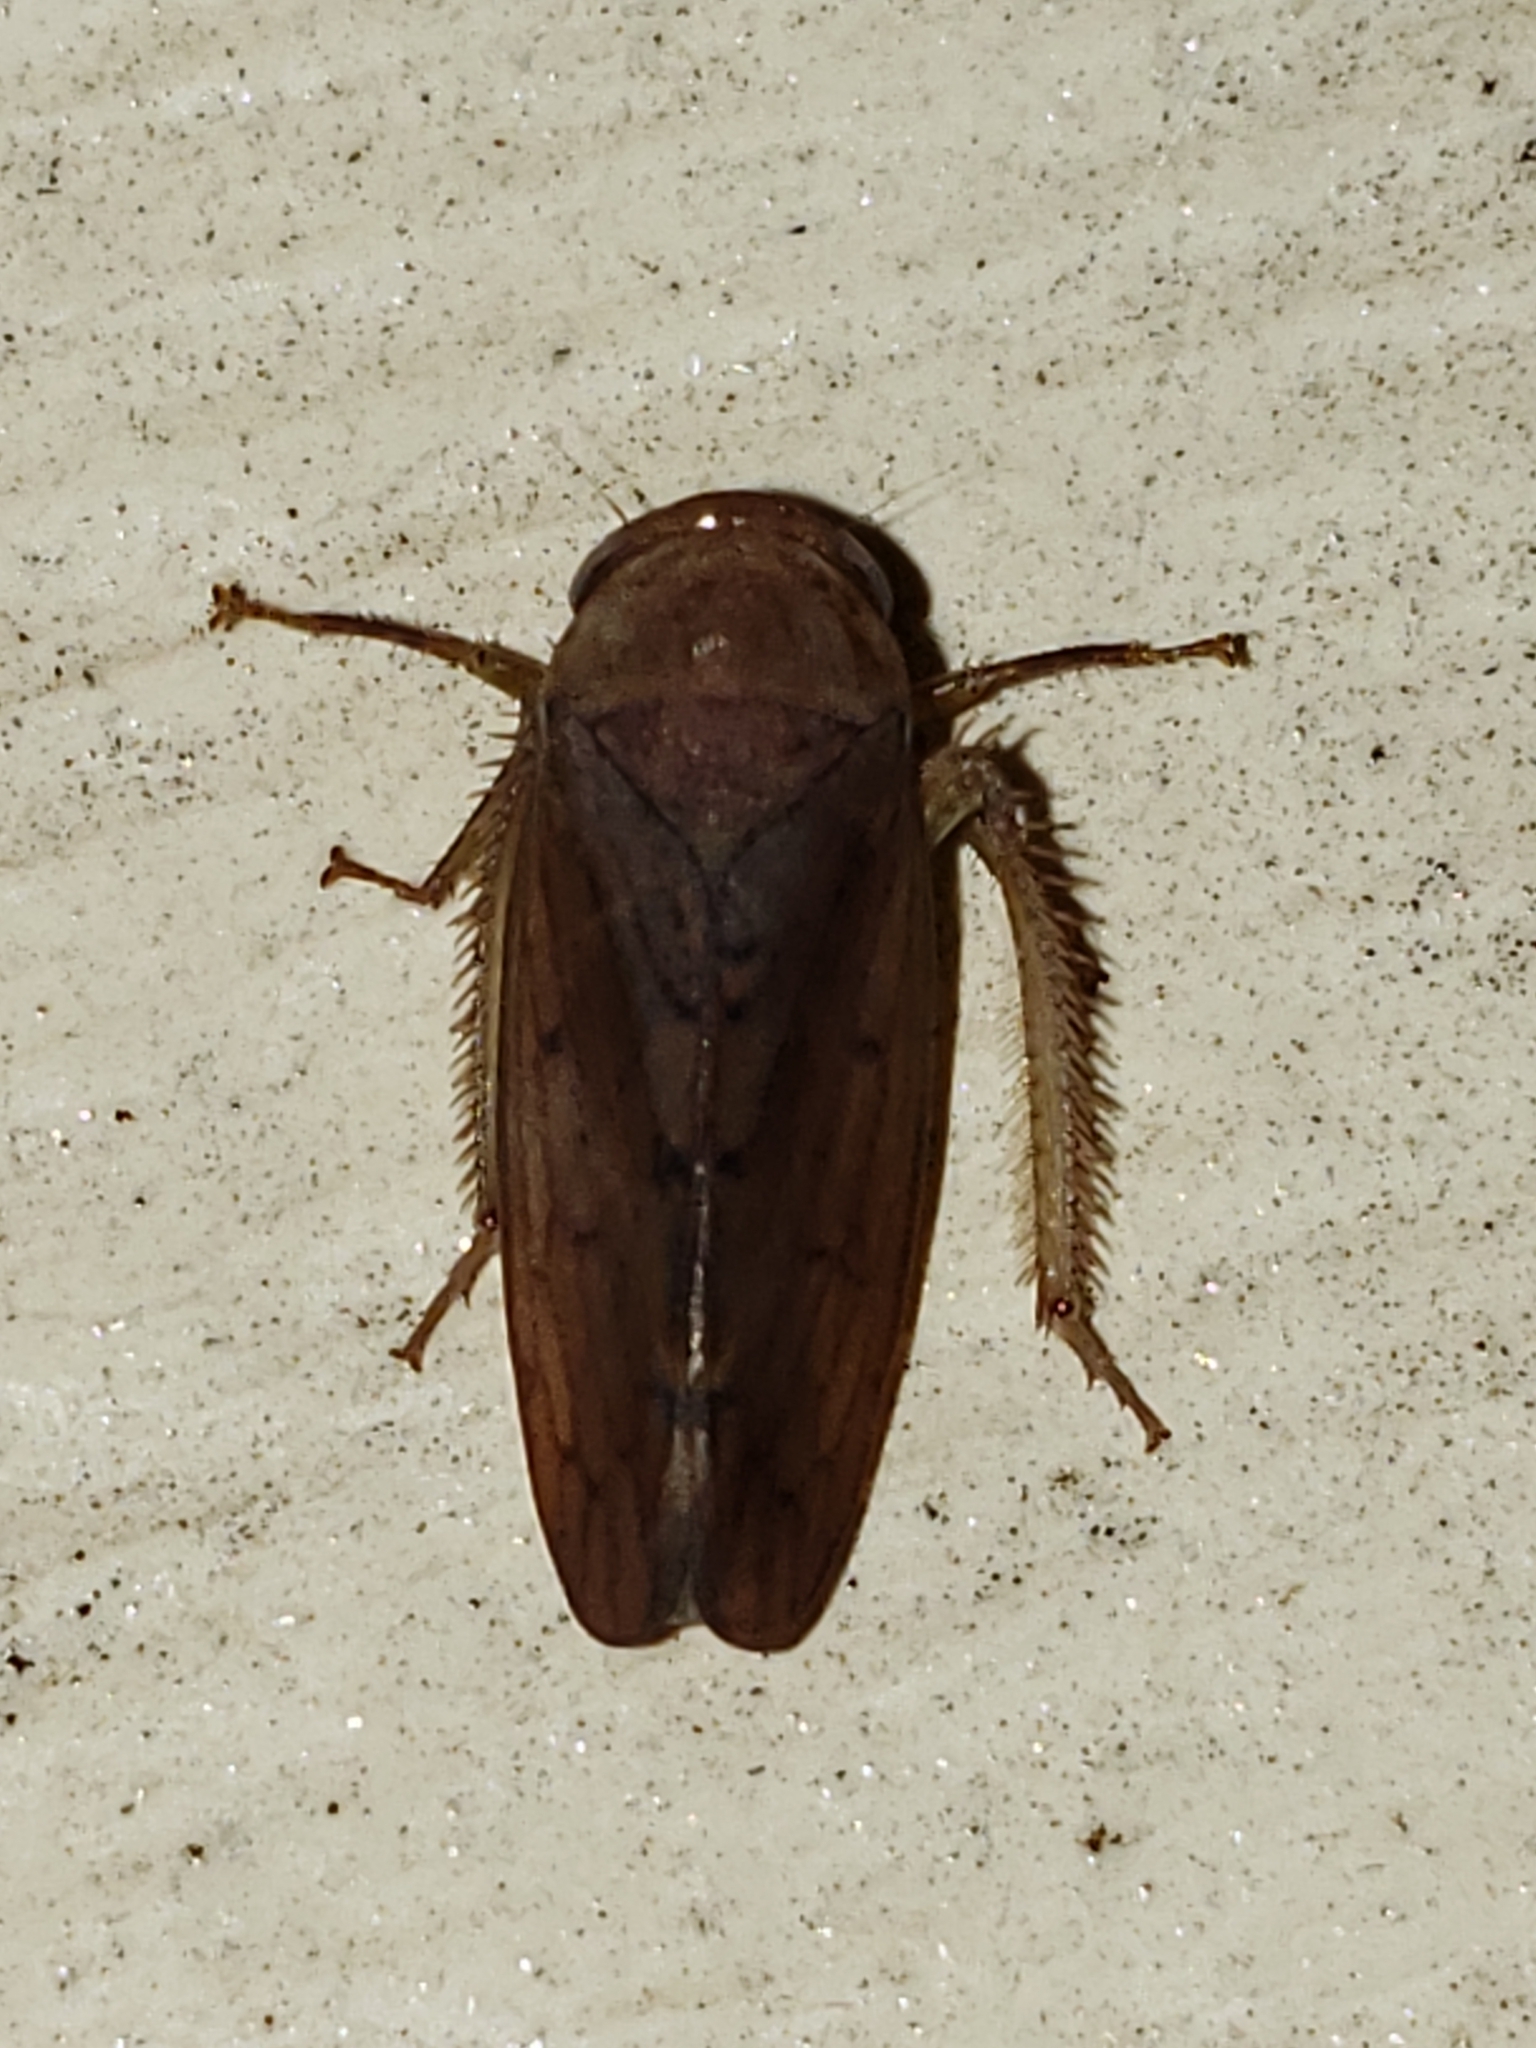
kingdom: Animalia
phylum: Arthropoda
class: Insecta
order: Hemiptera
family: Cicadellidae
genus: Polana
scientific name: Polana quadrinotata
